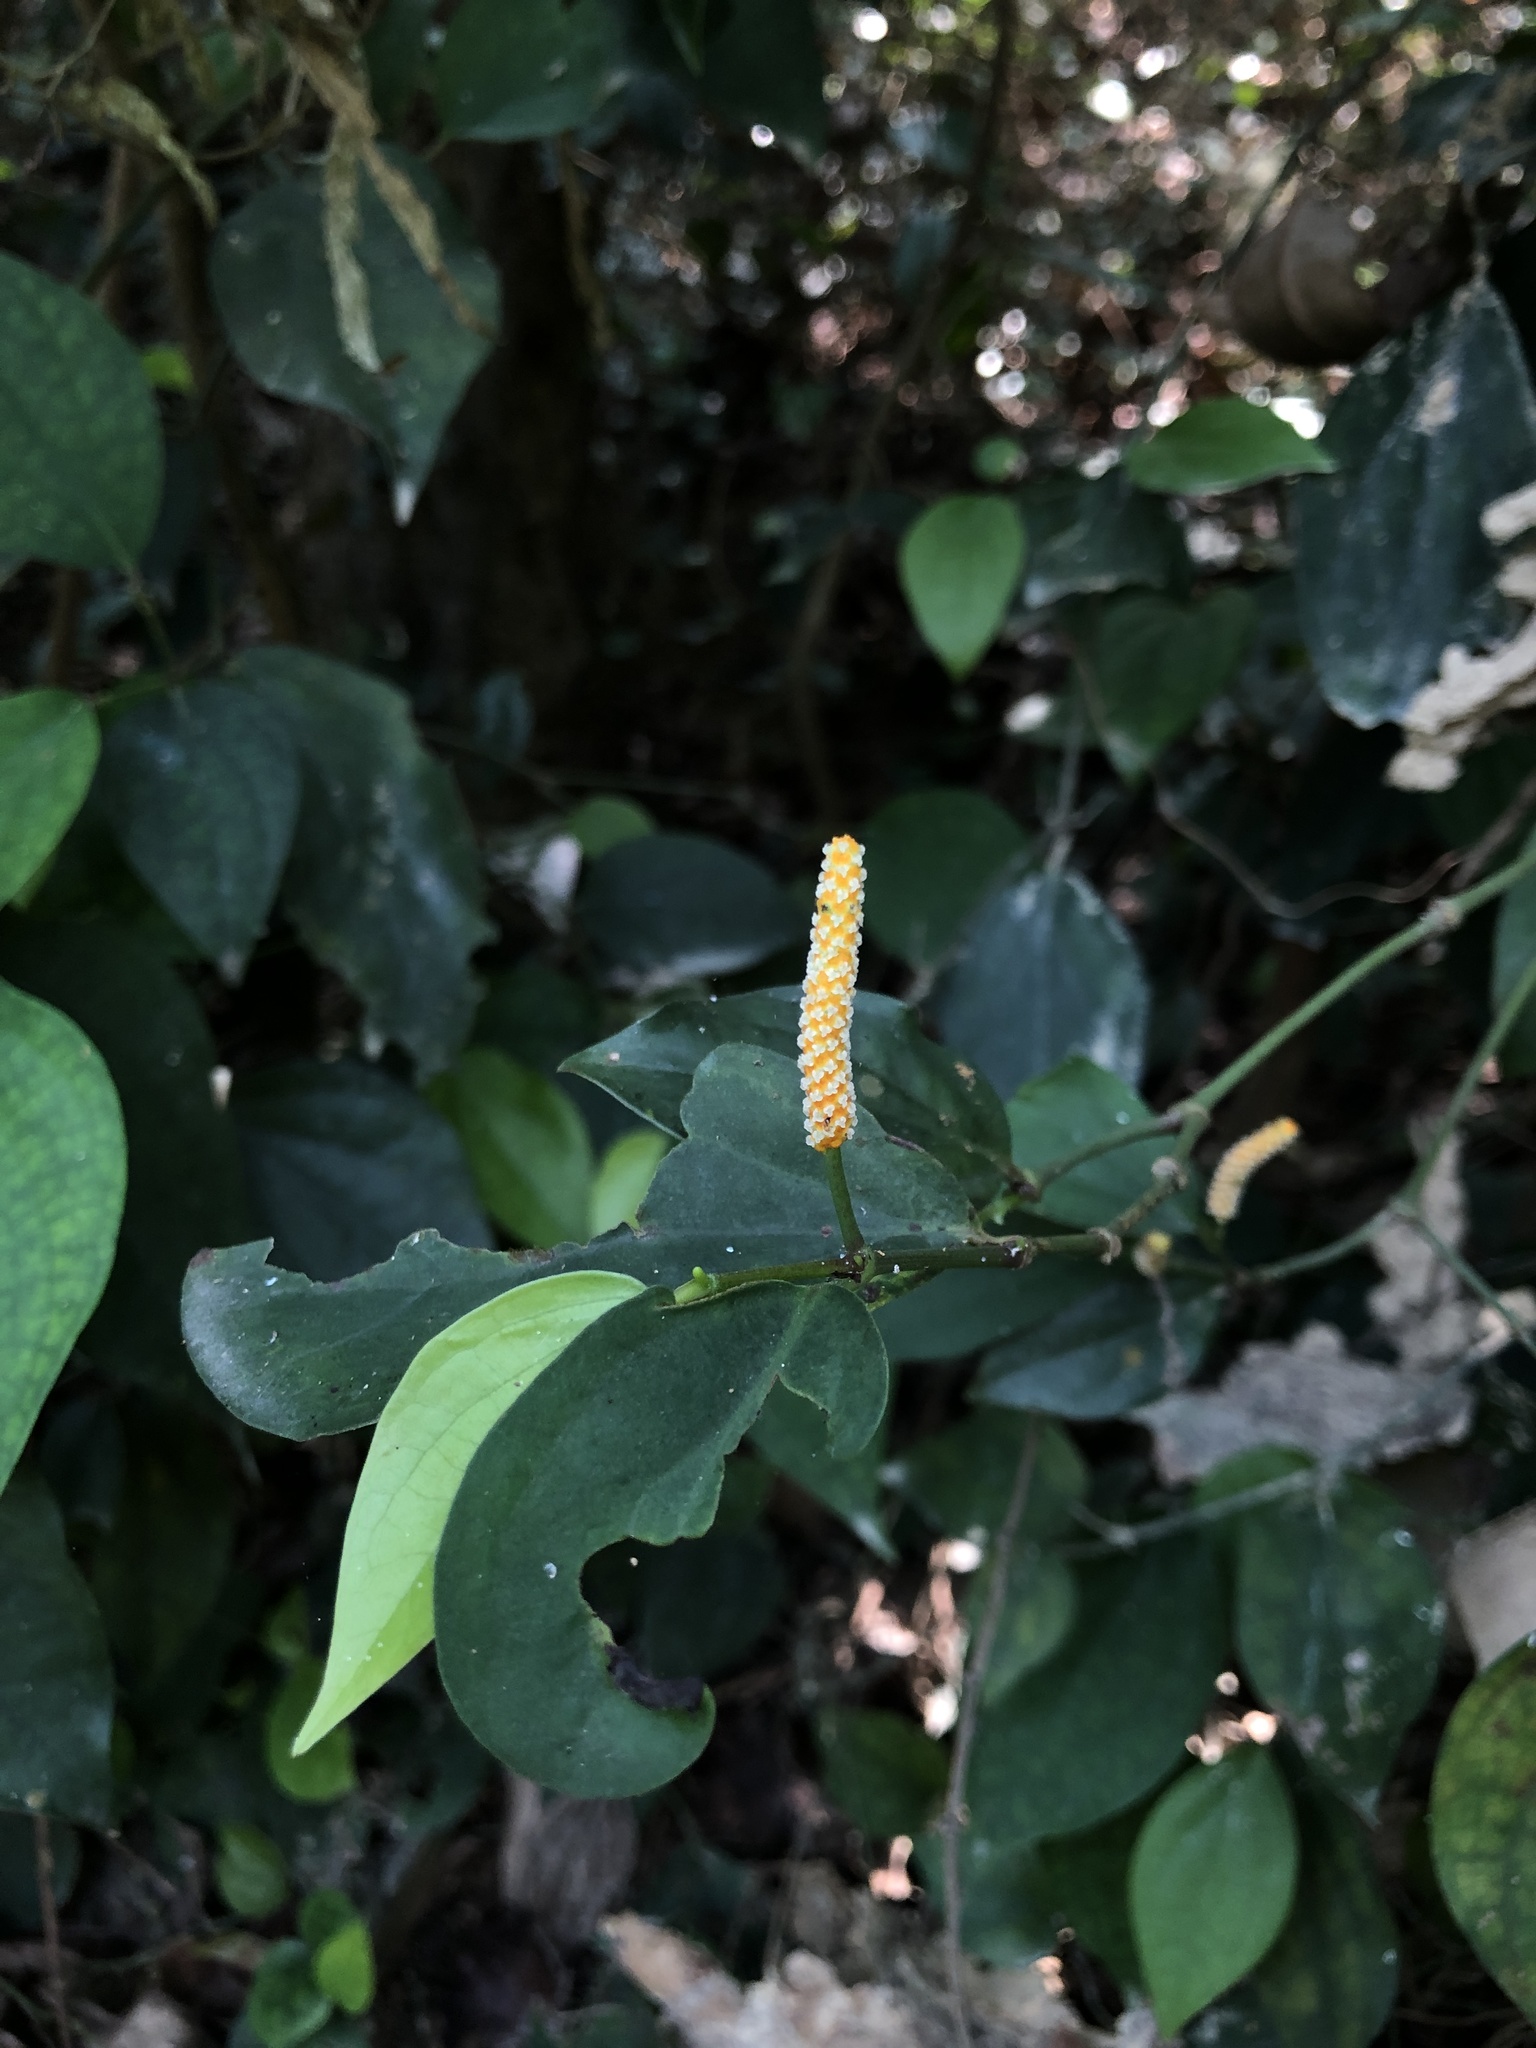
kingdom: Plantae
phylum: Tracheophyta
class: Magnoliopsida
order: Piperales
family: Piperaceae
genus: Piper
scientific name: Piper kadsura
